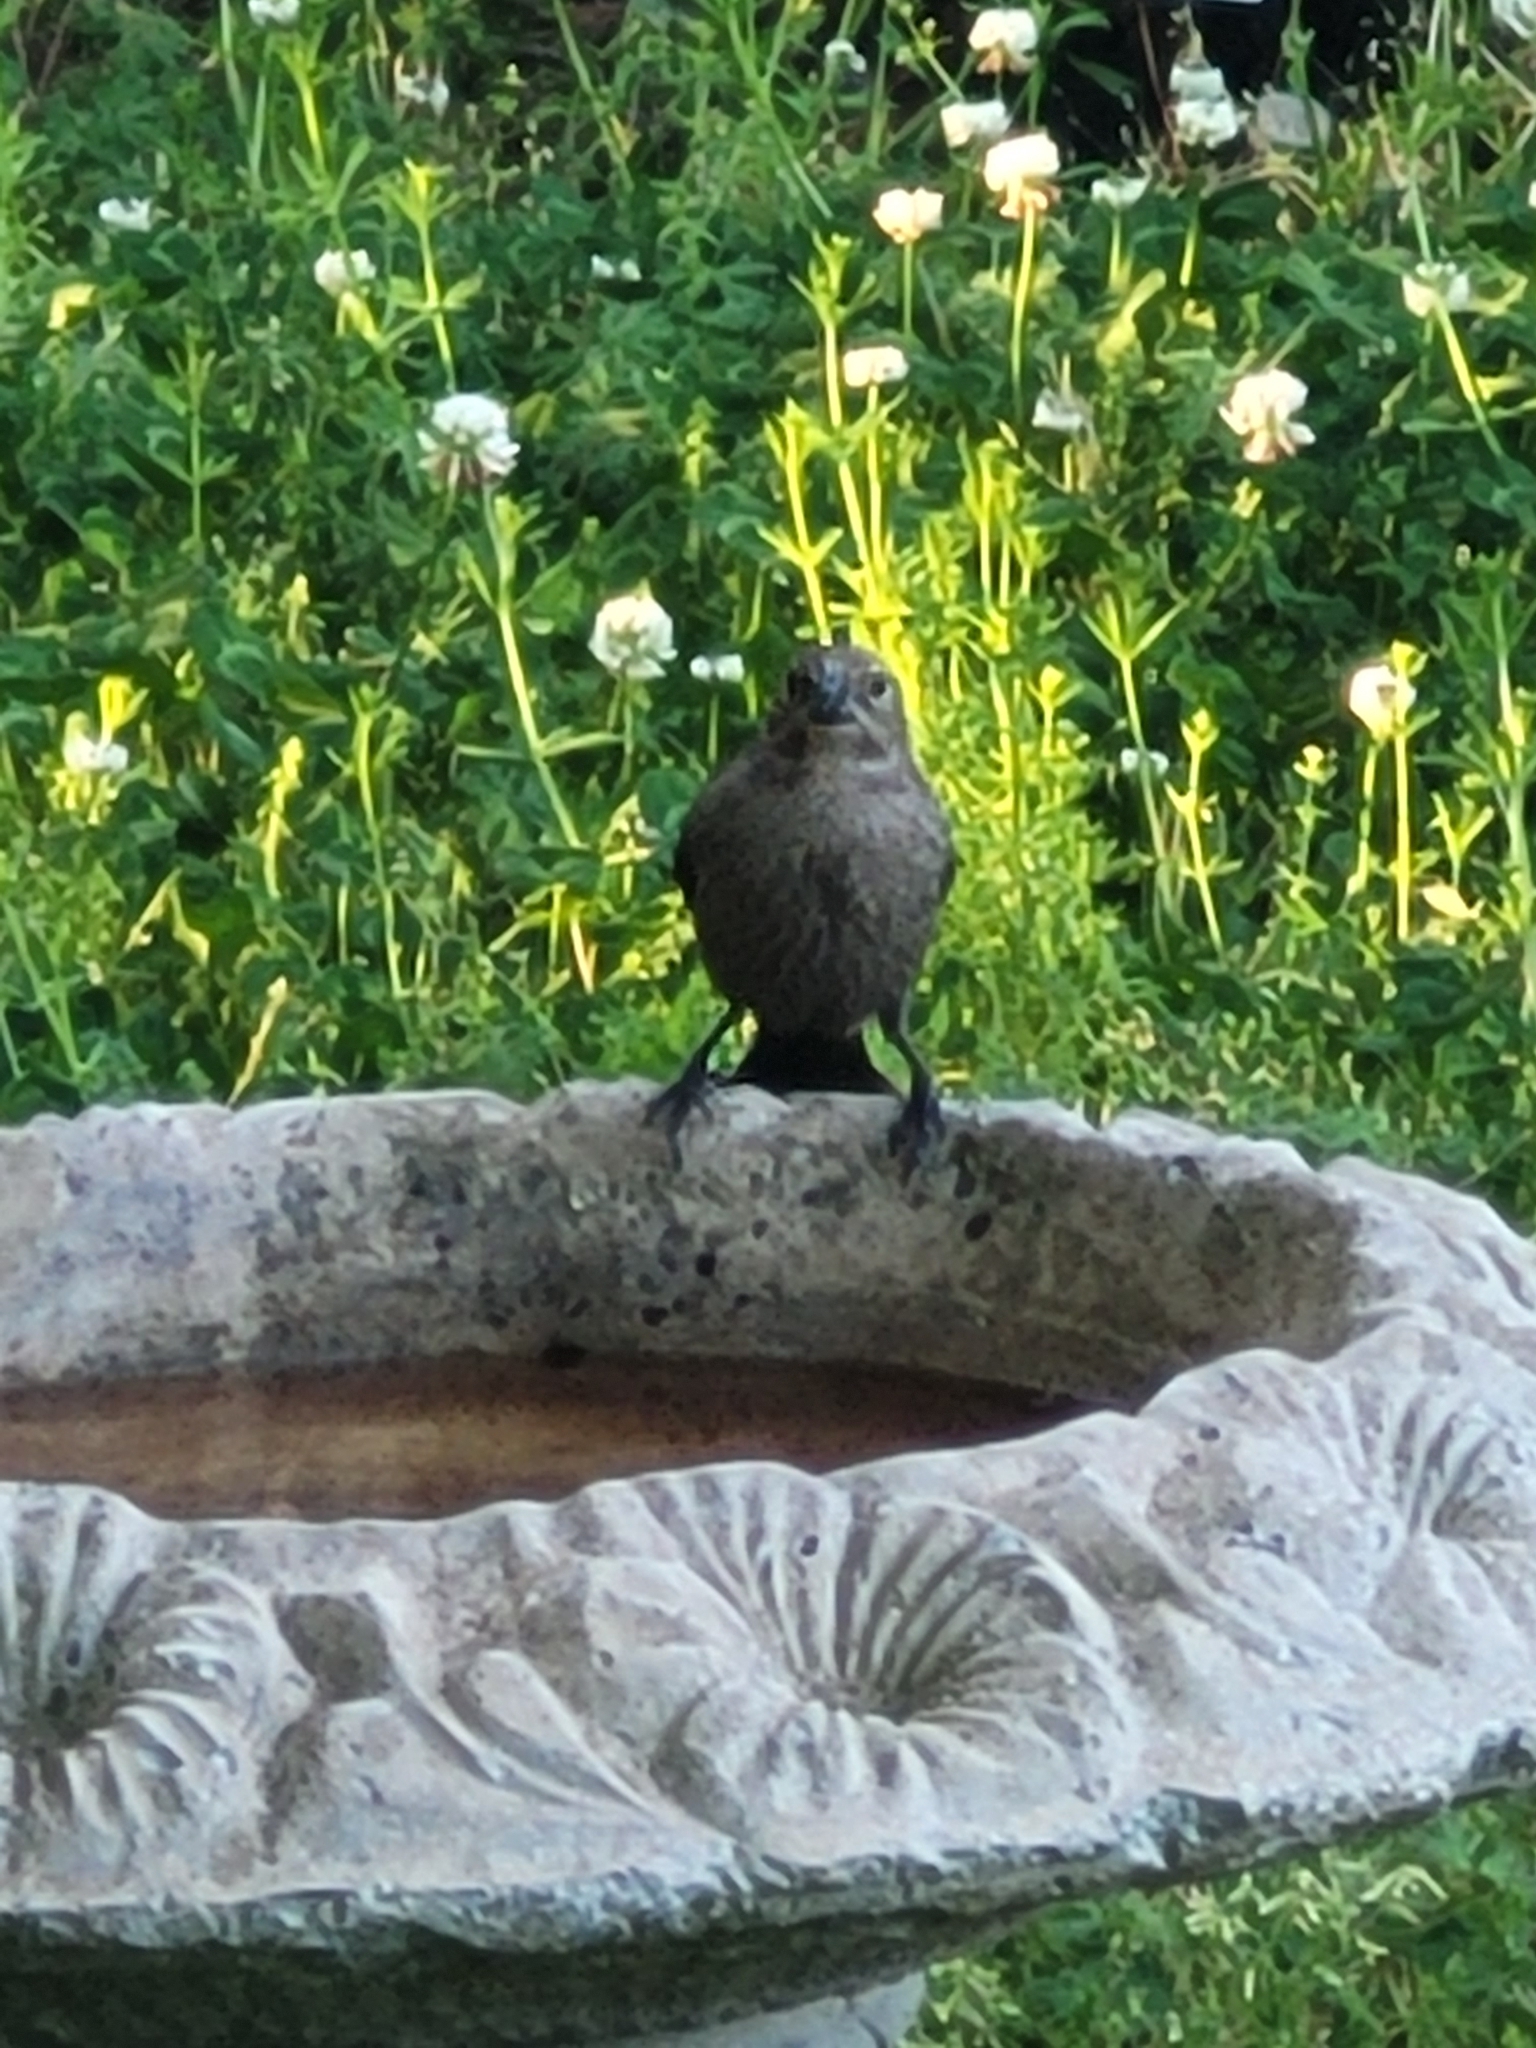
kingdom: Animalia
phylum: Chordata
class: Aves
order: Passeriformes
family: Icteridae
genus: Molothrus
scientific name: Molothrus ater
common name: Brown-headed cowbird
